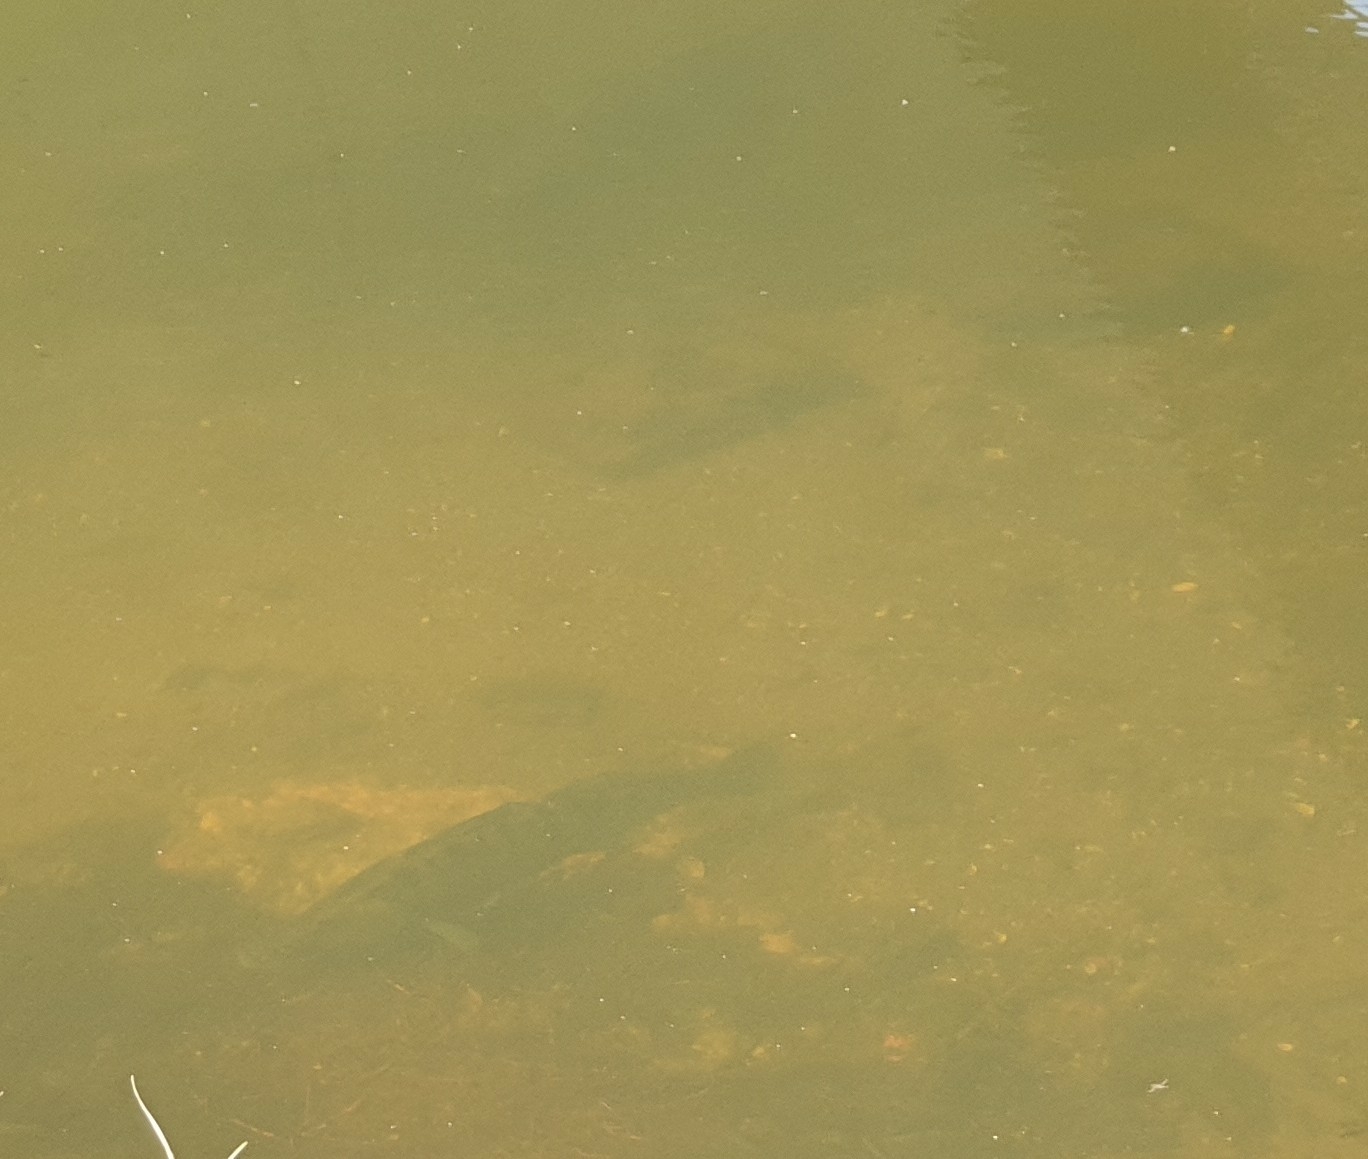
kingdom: Animalia
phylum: Chordata
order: Perciformes
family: Percidae
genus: Sander
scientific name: Sander lucioperca
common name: Pikeperch
